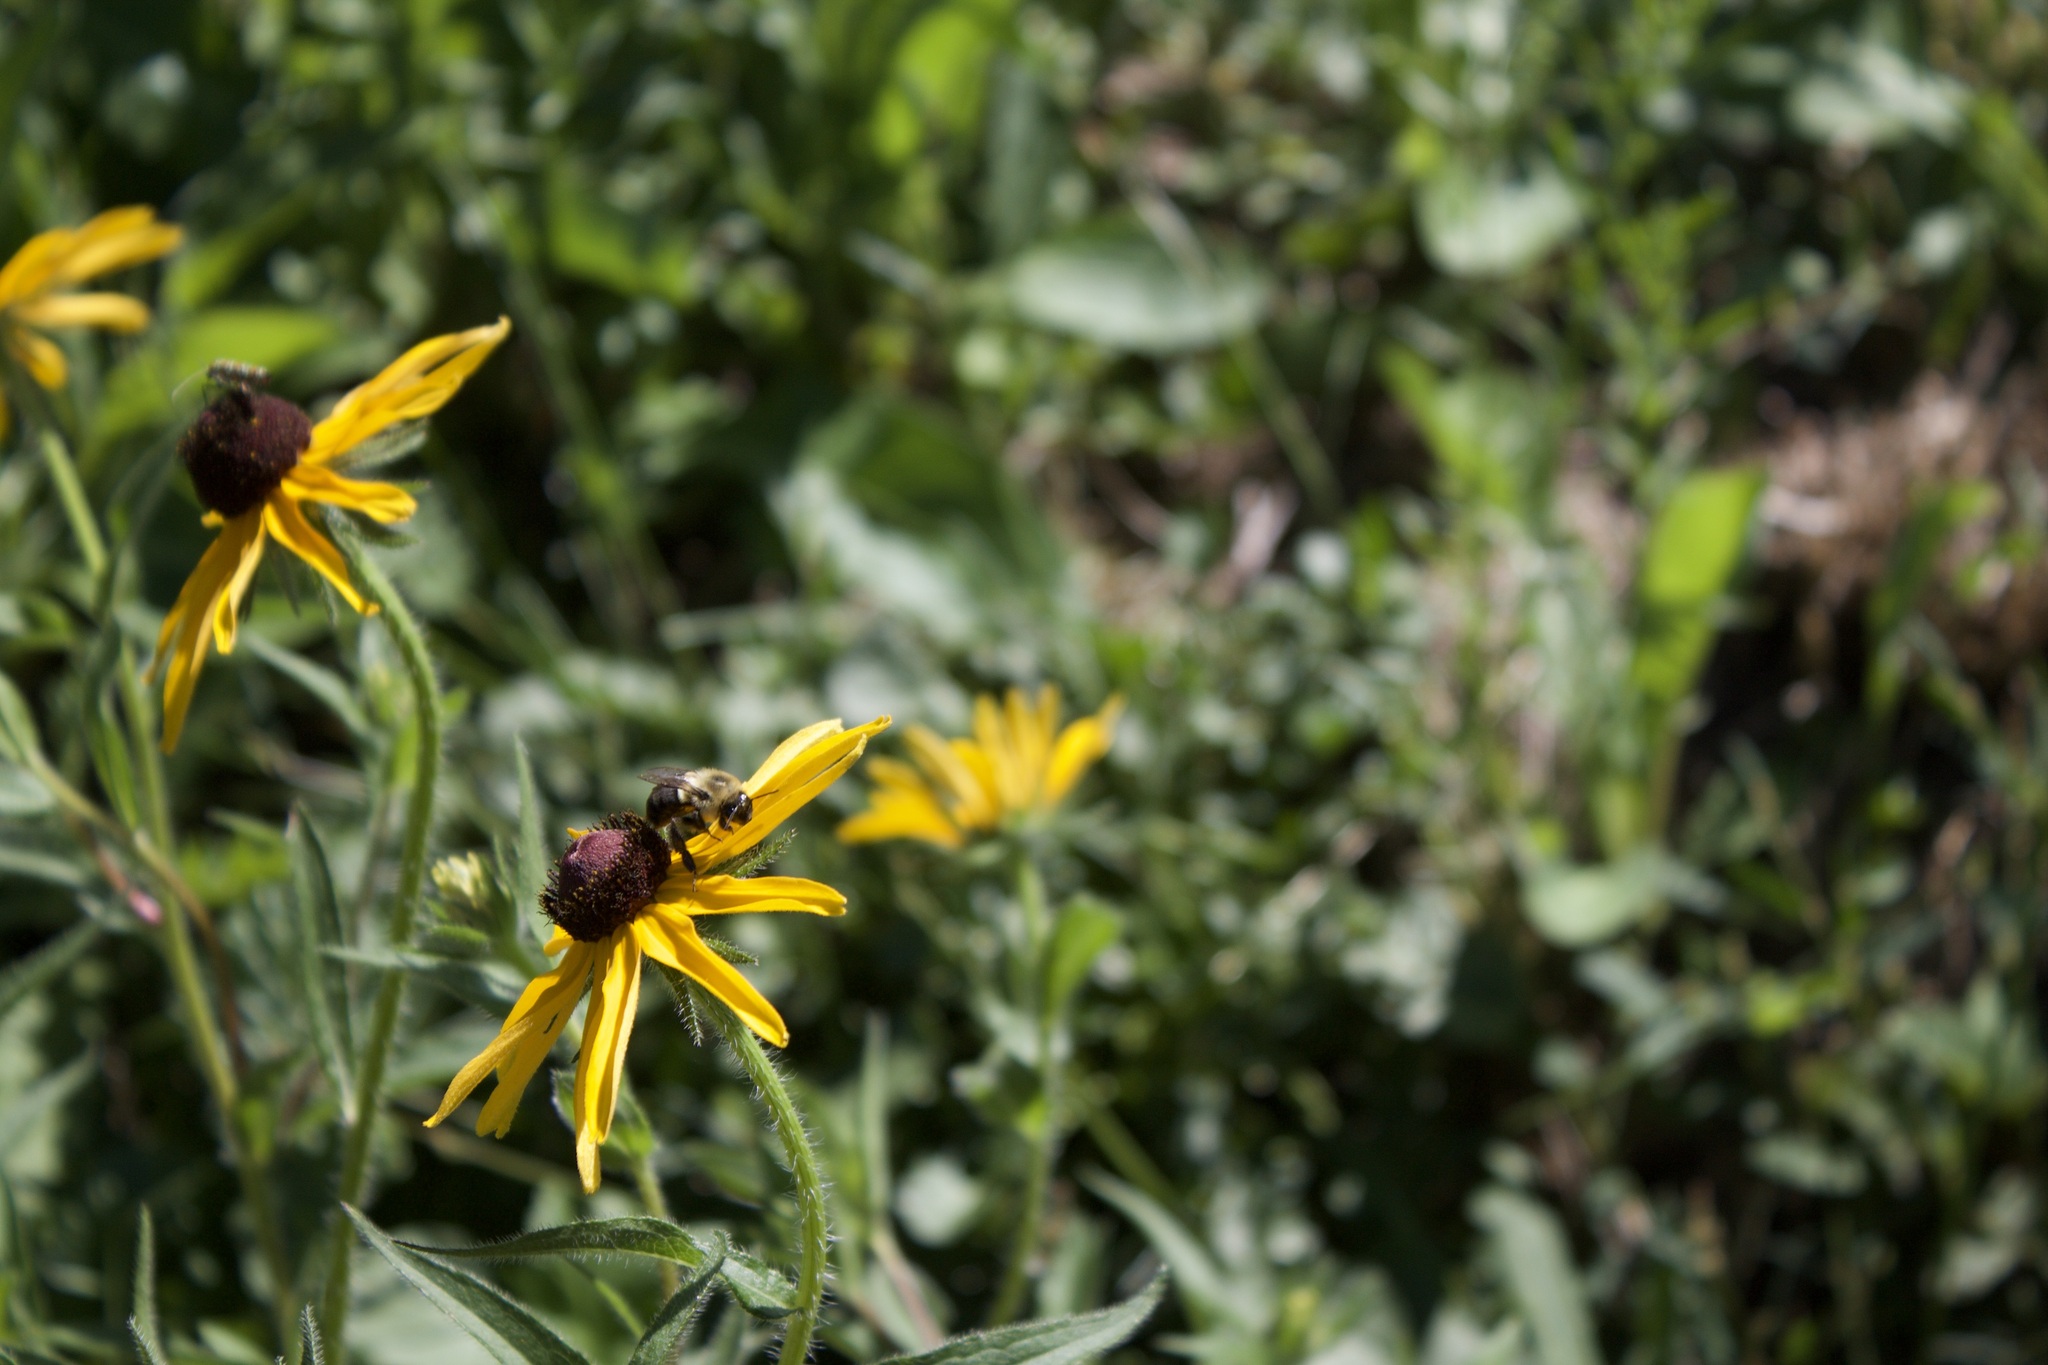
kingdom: Animalia
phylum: Arthropoda
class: Insecta
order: Hymenoptera
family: Apidae
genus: Bombus
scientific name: Bombus impatiens
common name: Common eastern bumble bee
